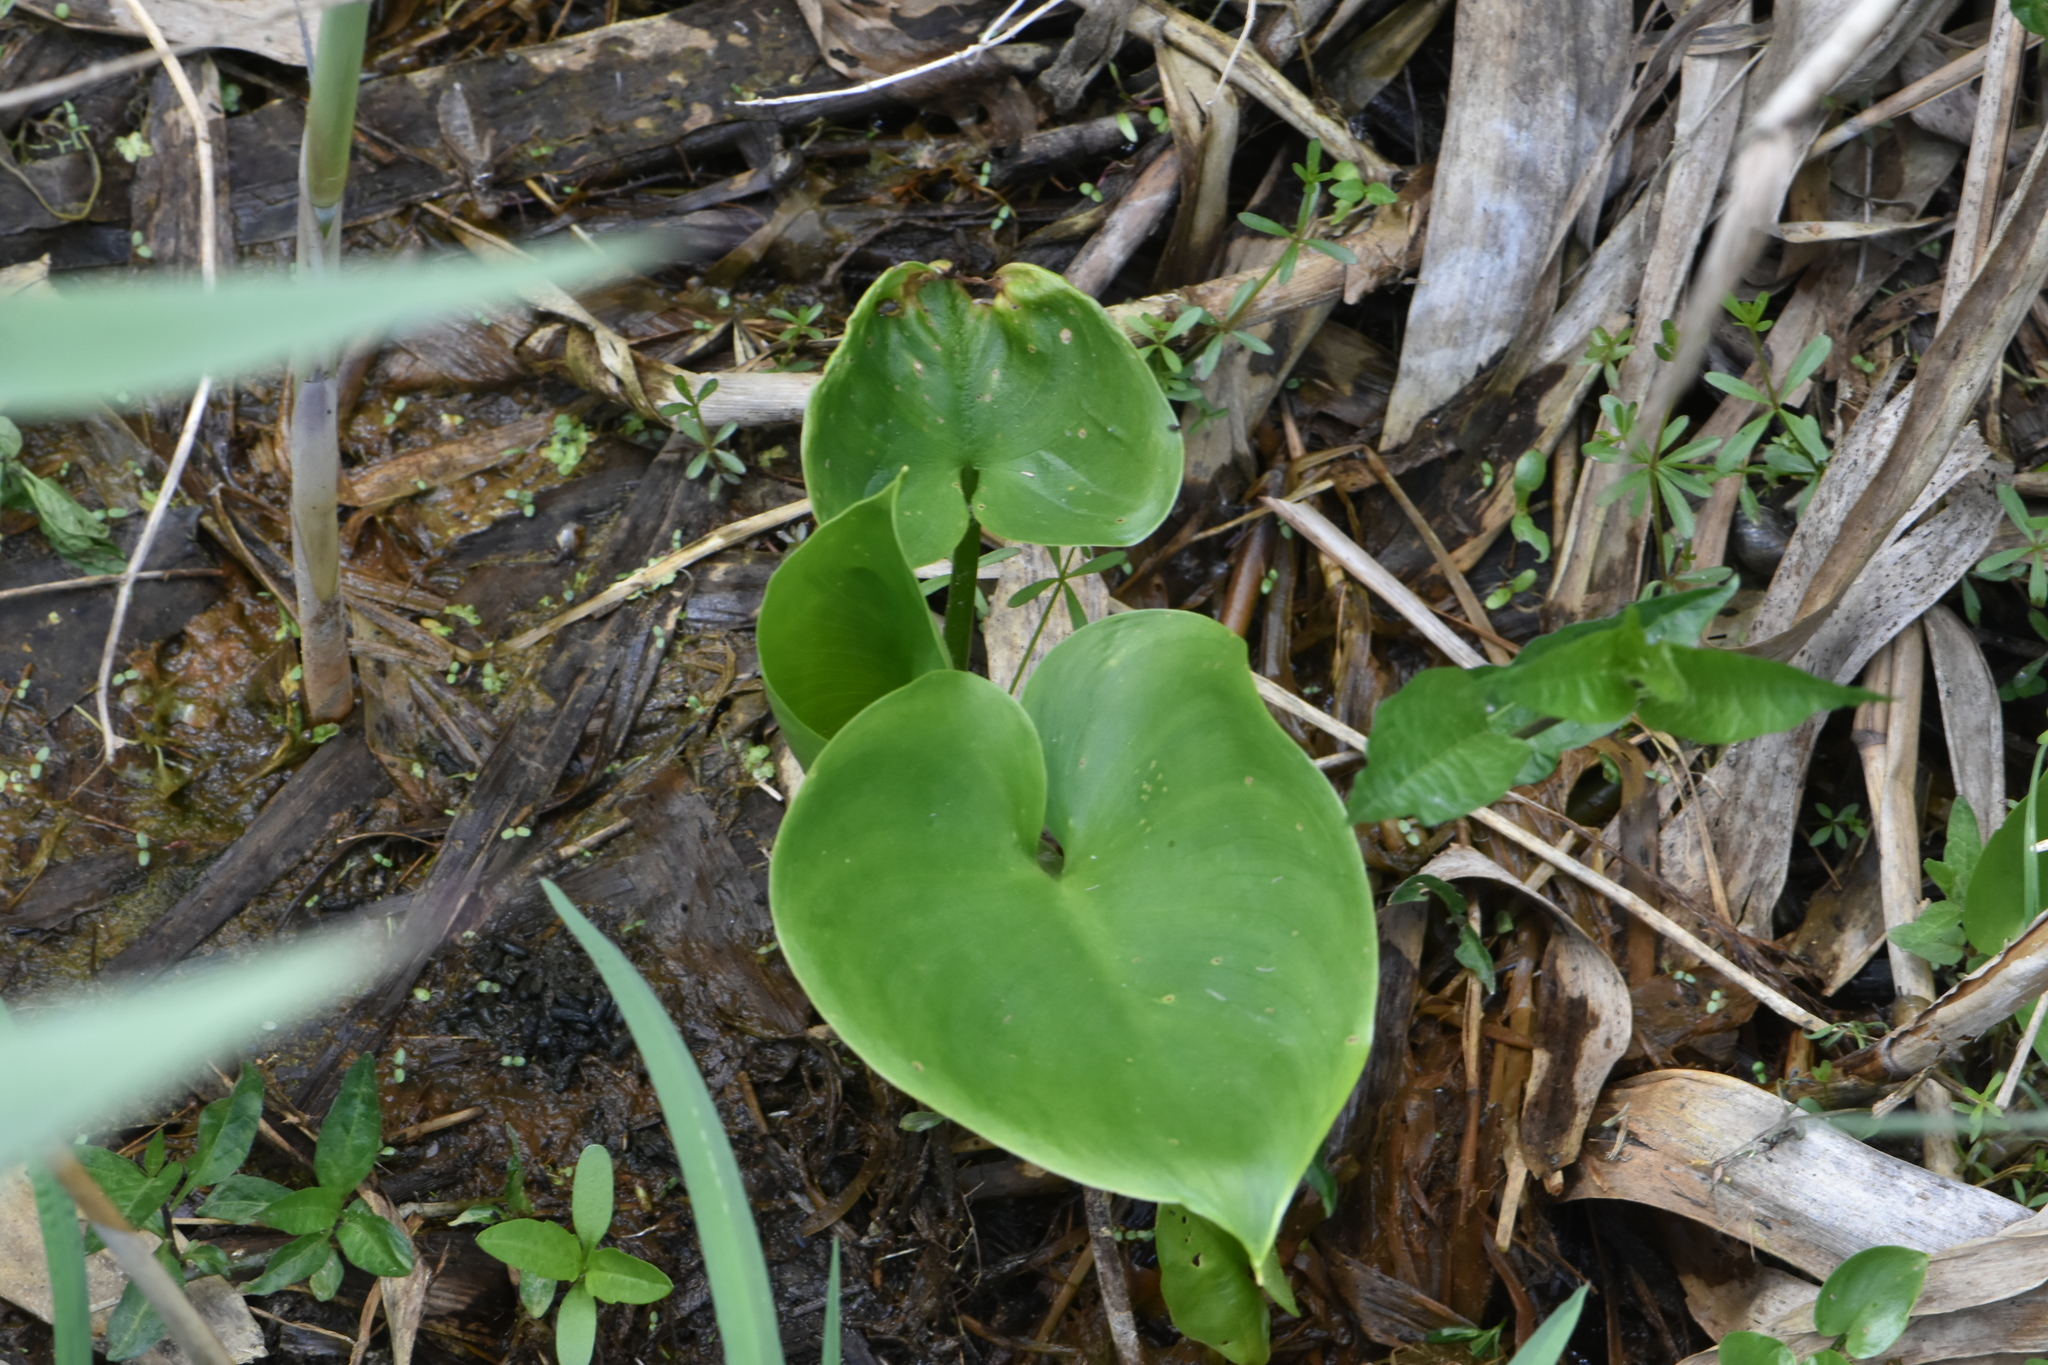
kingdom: Plantae
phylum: Tracheophyta
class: Liliopsida
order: Alismatales
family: Araceae
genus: Calla
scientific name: Calla palustris
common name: Bog arum
